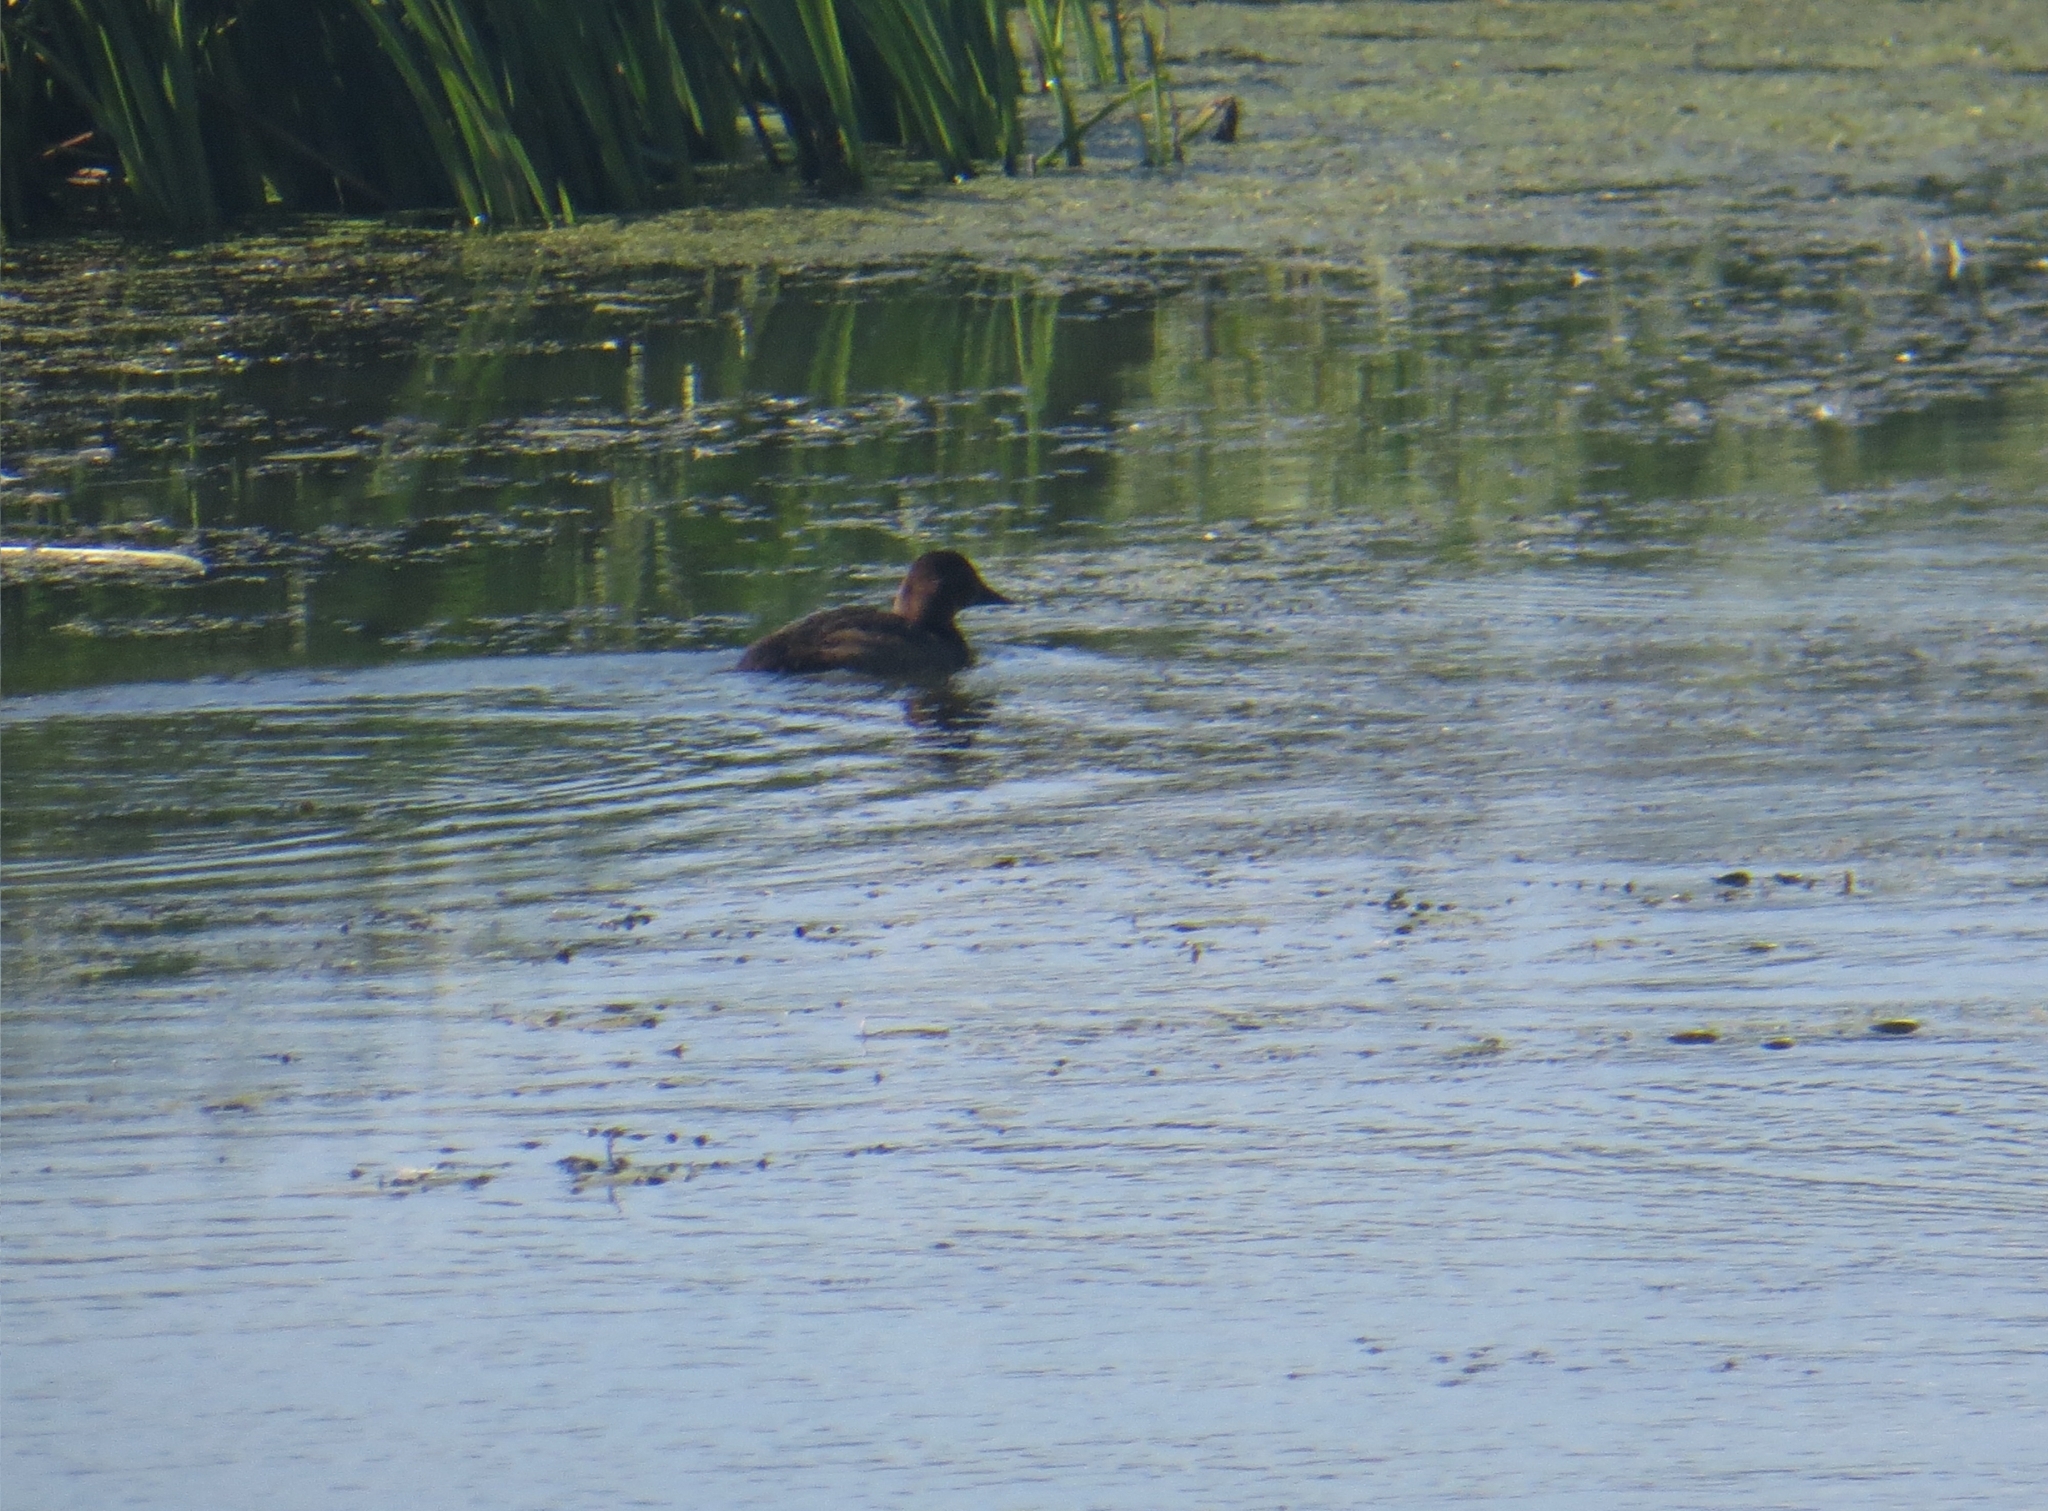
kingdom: Animalia
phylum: Chordata
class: Aves
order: Anseriformes
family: Anatidae
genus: Aythya
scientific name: Aythya ferina
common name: Common pochard
